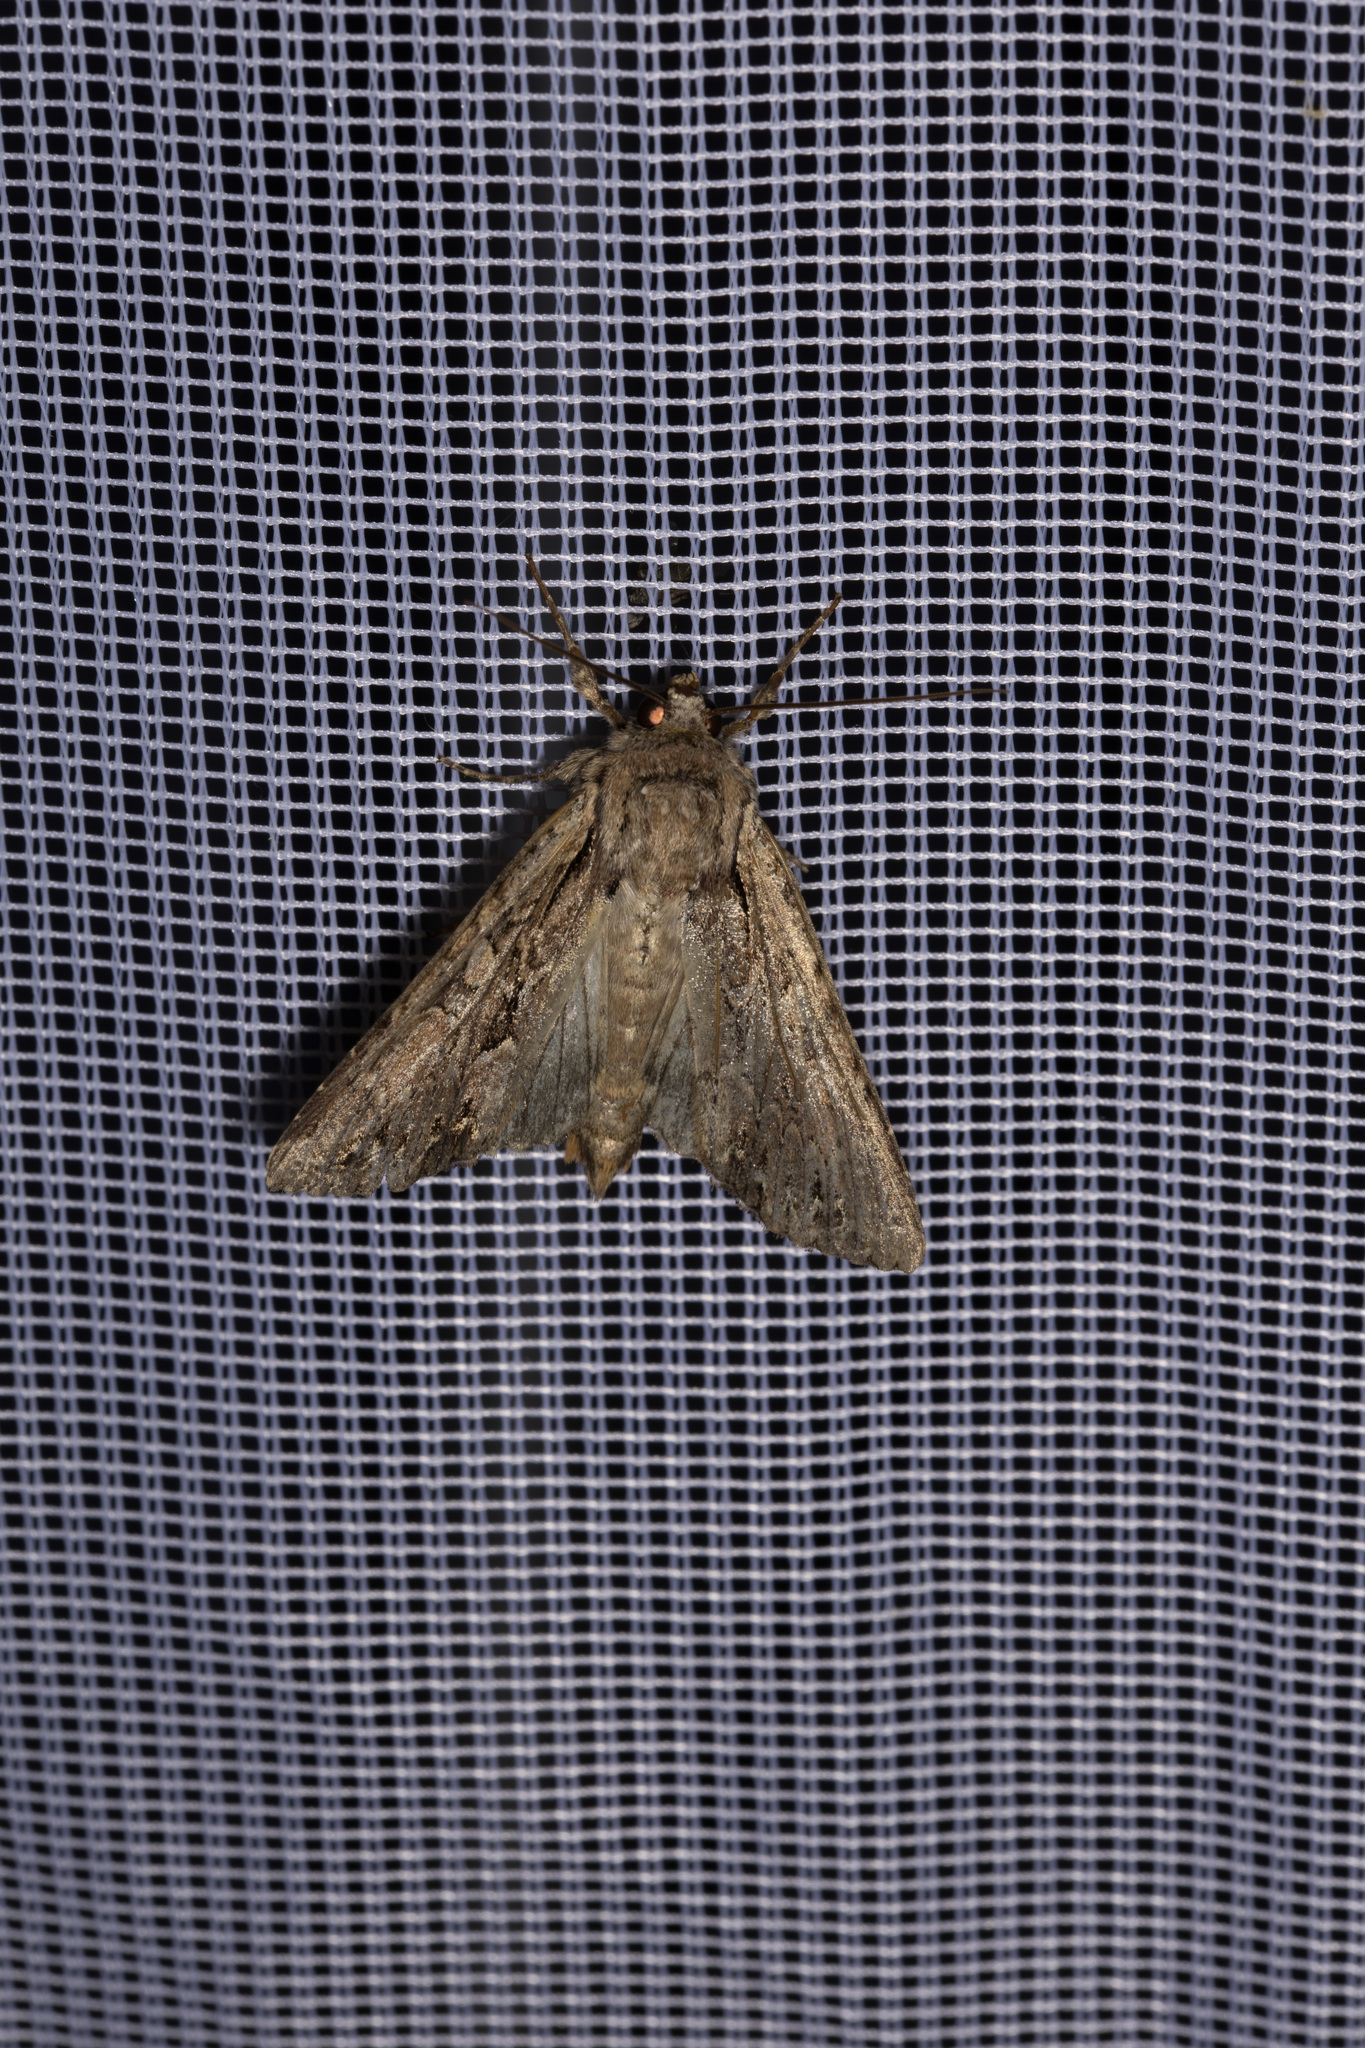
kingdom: Animalia
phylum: Arthropoda
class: Insecta
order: Lepidoptera
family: Noctuidae
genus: Apamea
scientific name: Apamea monoglypha
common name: Dark arches
